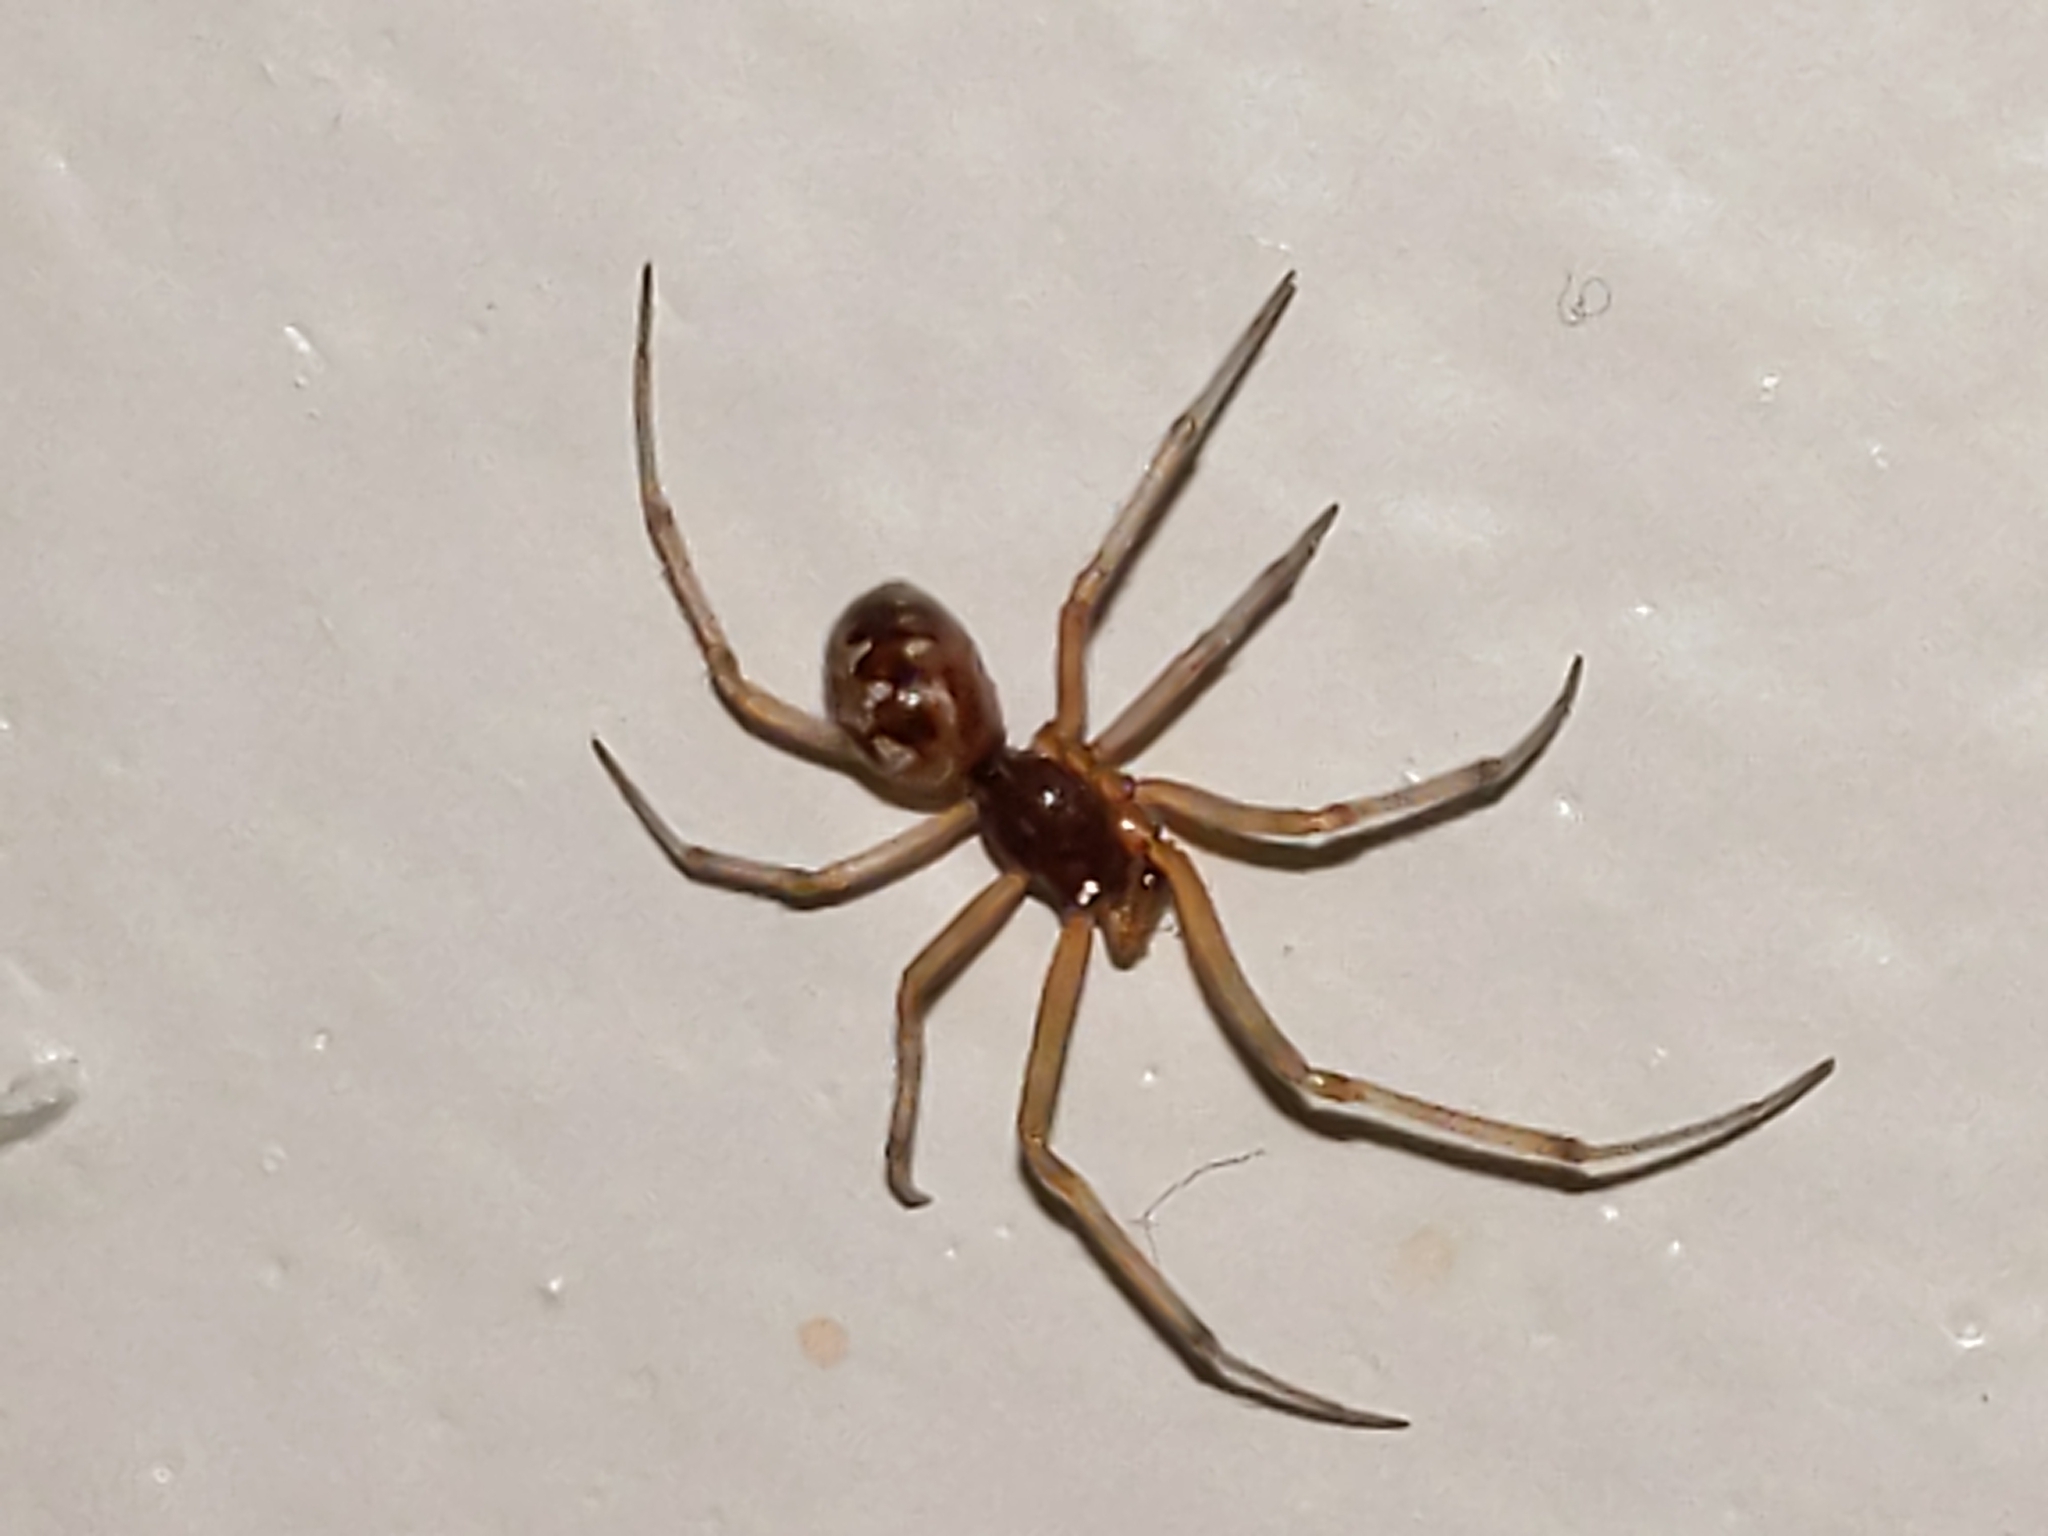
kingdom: Animalia
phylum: Arthropoda
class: Arachnida
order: Araneae
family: Theridiidae
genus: Steatoda
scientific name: Steatoda triangulosa
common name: Triangulate bud spider
